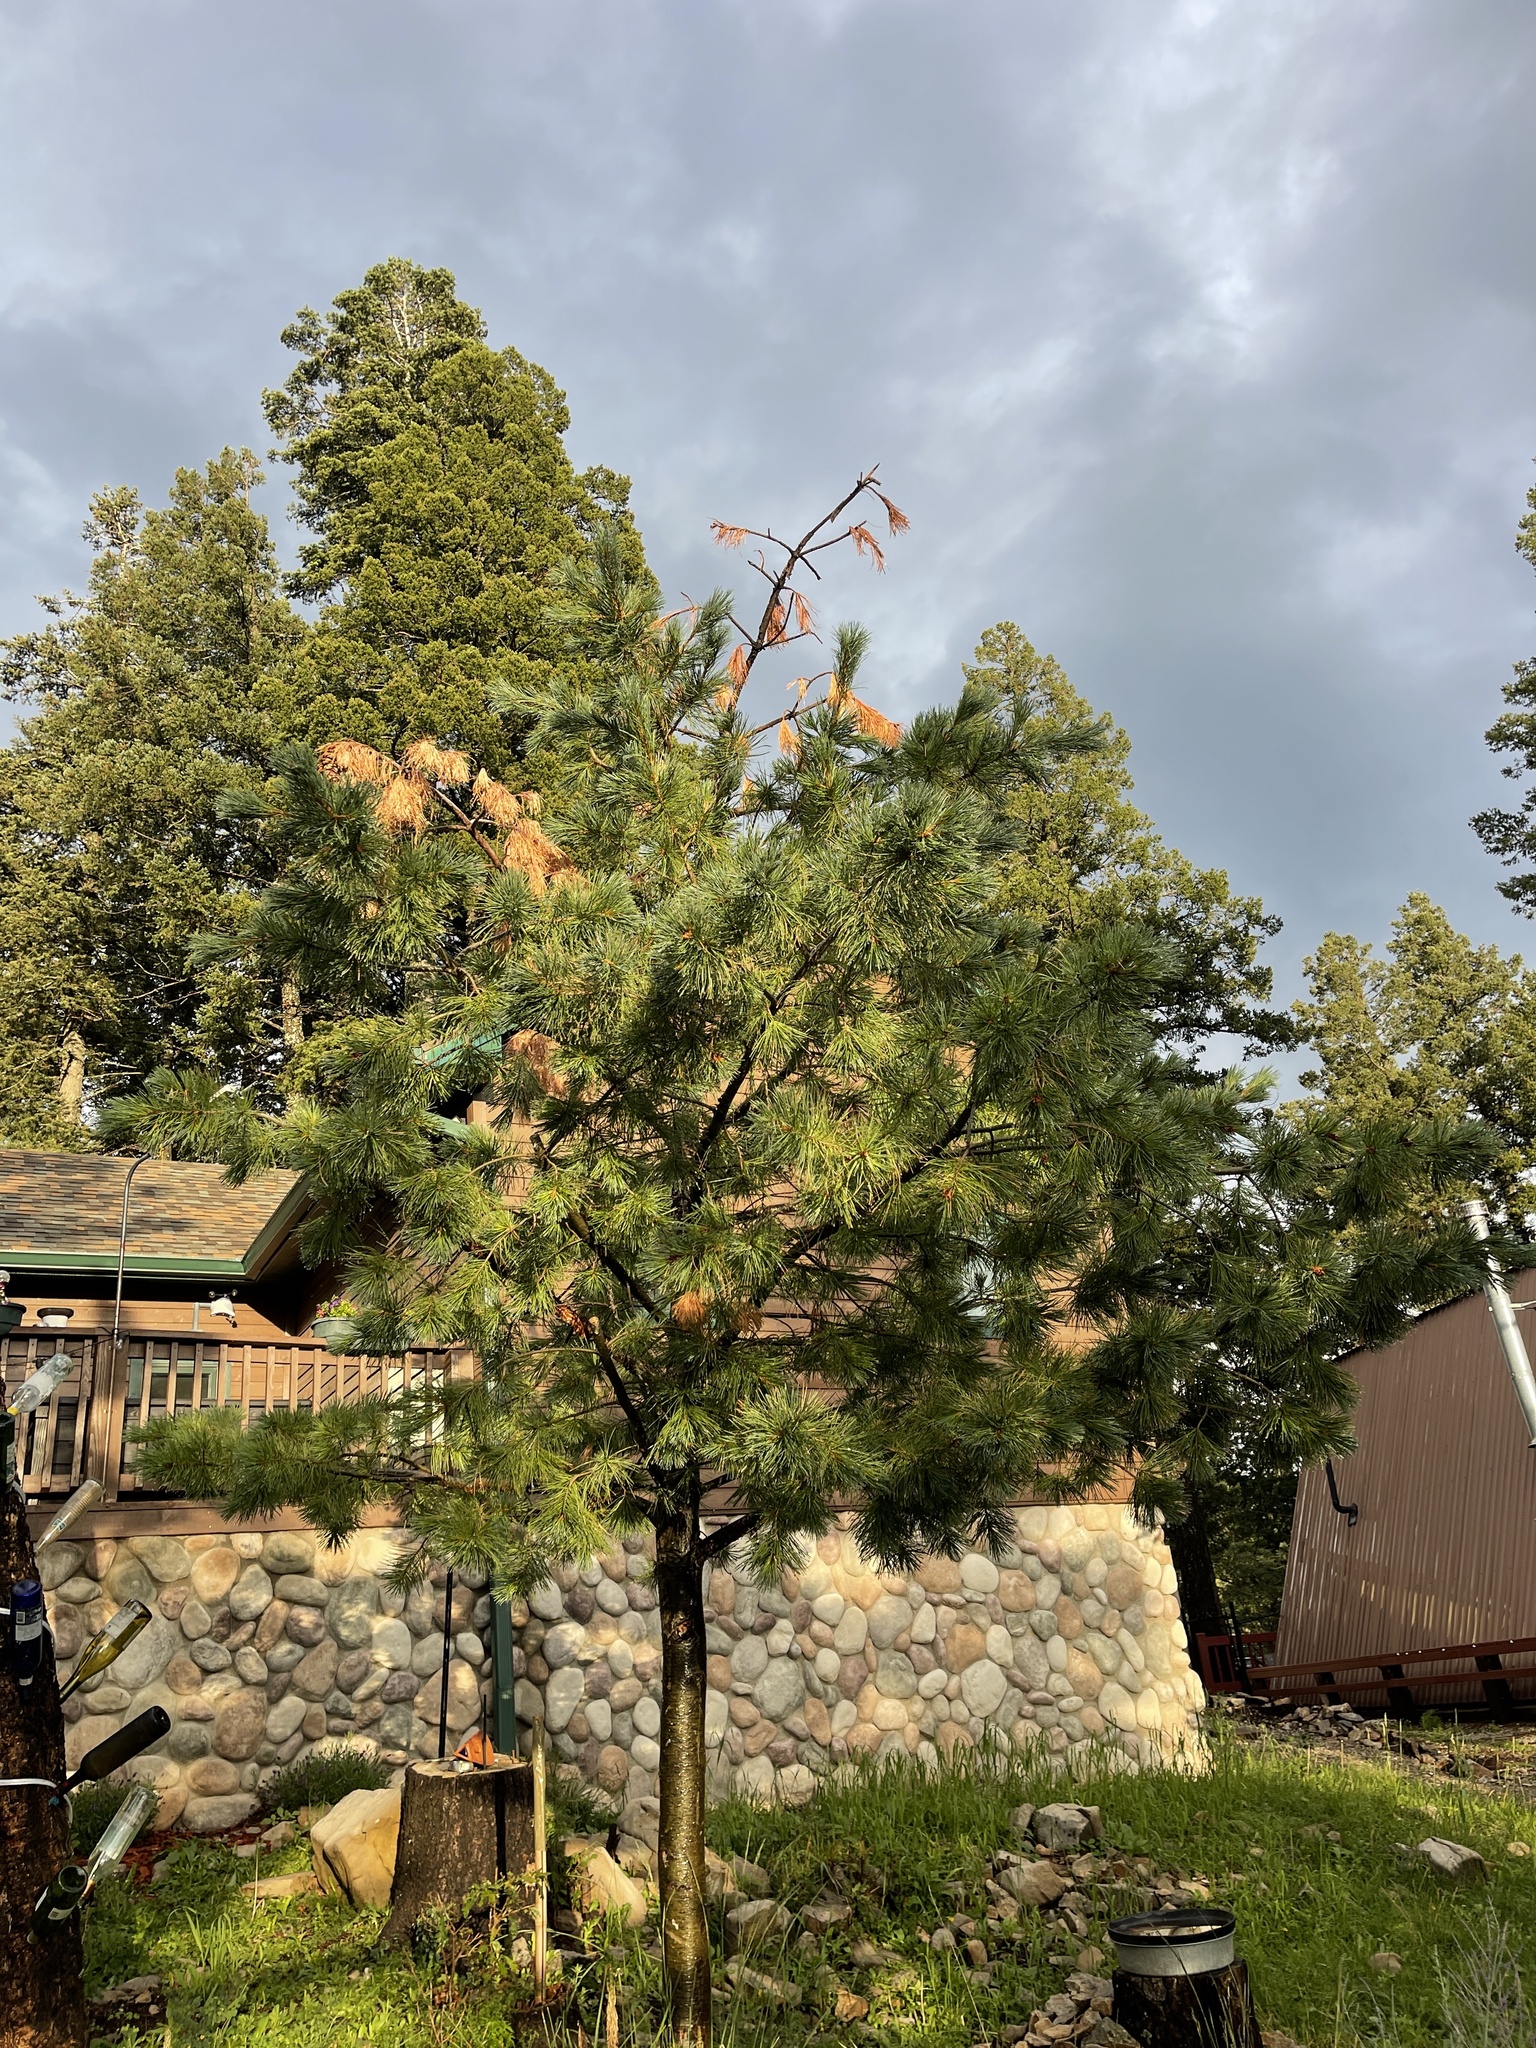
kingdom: Plantae
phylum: Tracheophyta
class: Pinopsida
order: Pinales
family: Pinaceae
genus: Pinus
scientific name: Pinus strobiformis
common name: Southwestern white pine
